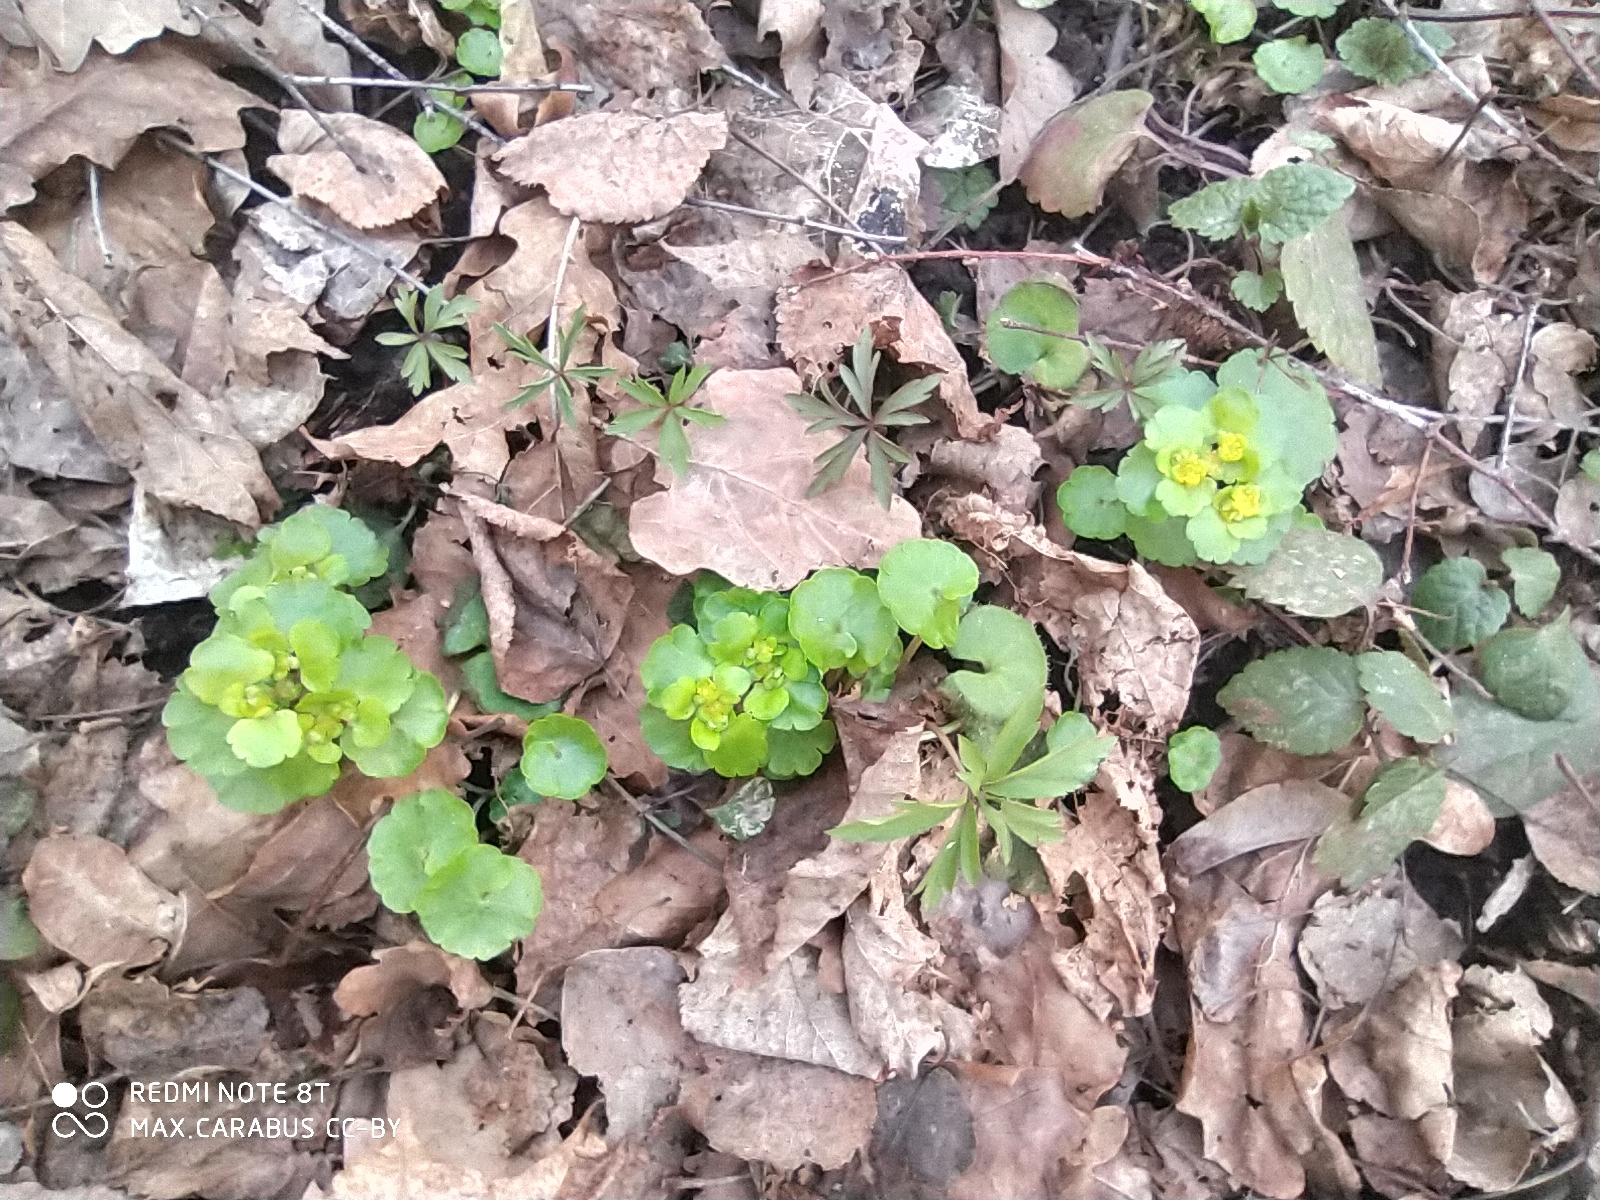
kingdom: Plantae
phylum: Tracheophyta
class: Magnoliopsida
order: Saxifragales
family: Saxifragaceae
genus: Chrysosplenium
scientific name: Chrysosplenium alternifolium
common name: Alternate-leaved golden-saxifrage
